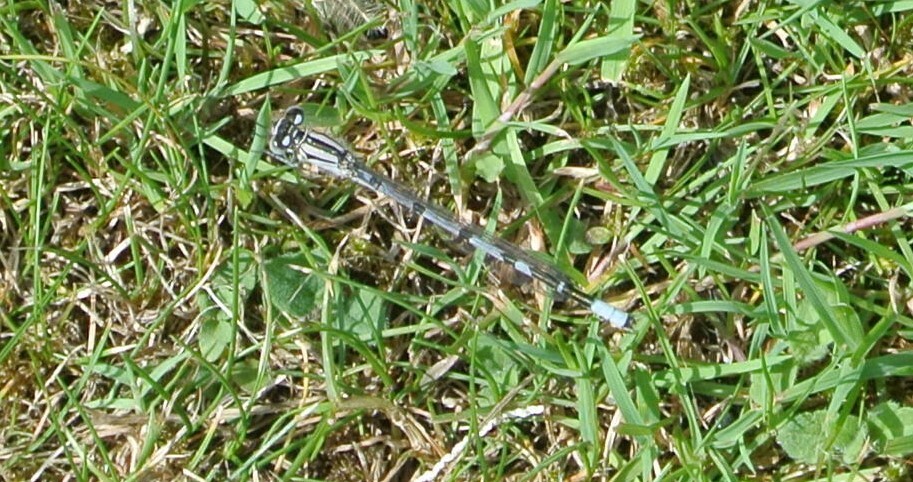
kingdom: Animalia
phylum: Arthropoda
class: Insecta
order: Odonata
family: Coenagrionidae
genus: Enallagma
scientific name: Enallagma cyathigerum
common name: Common blue damselfly
